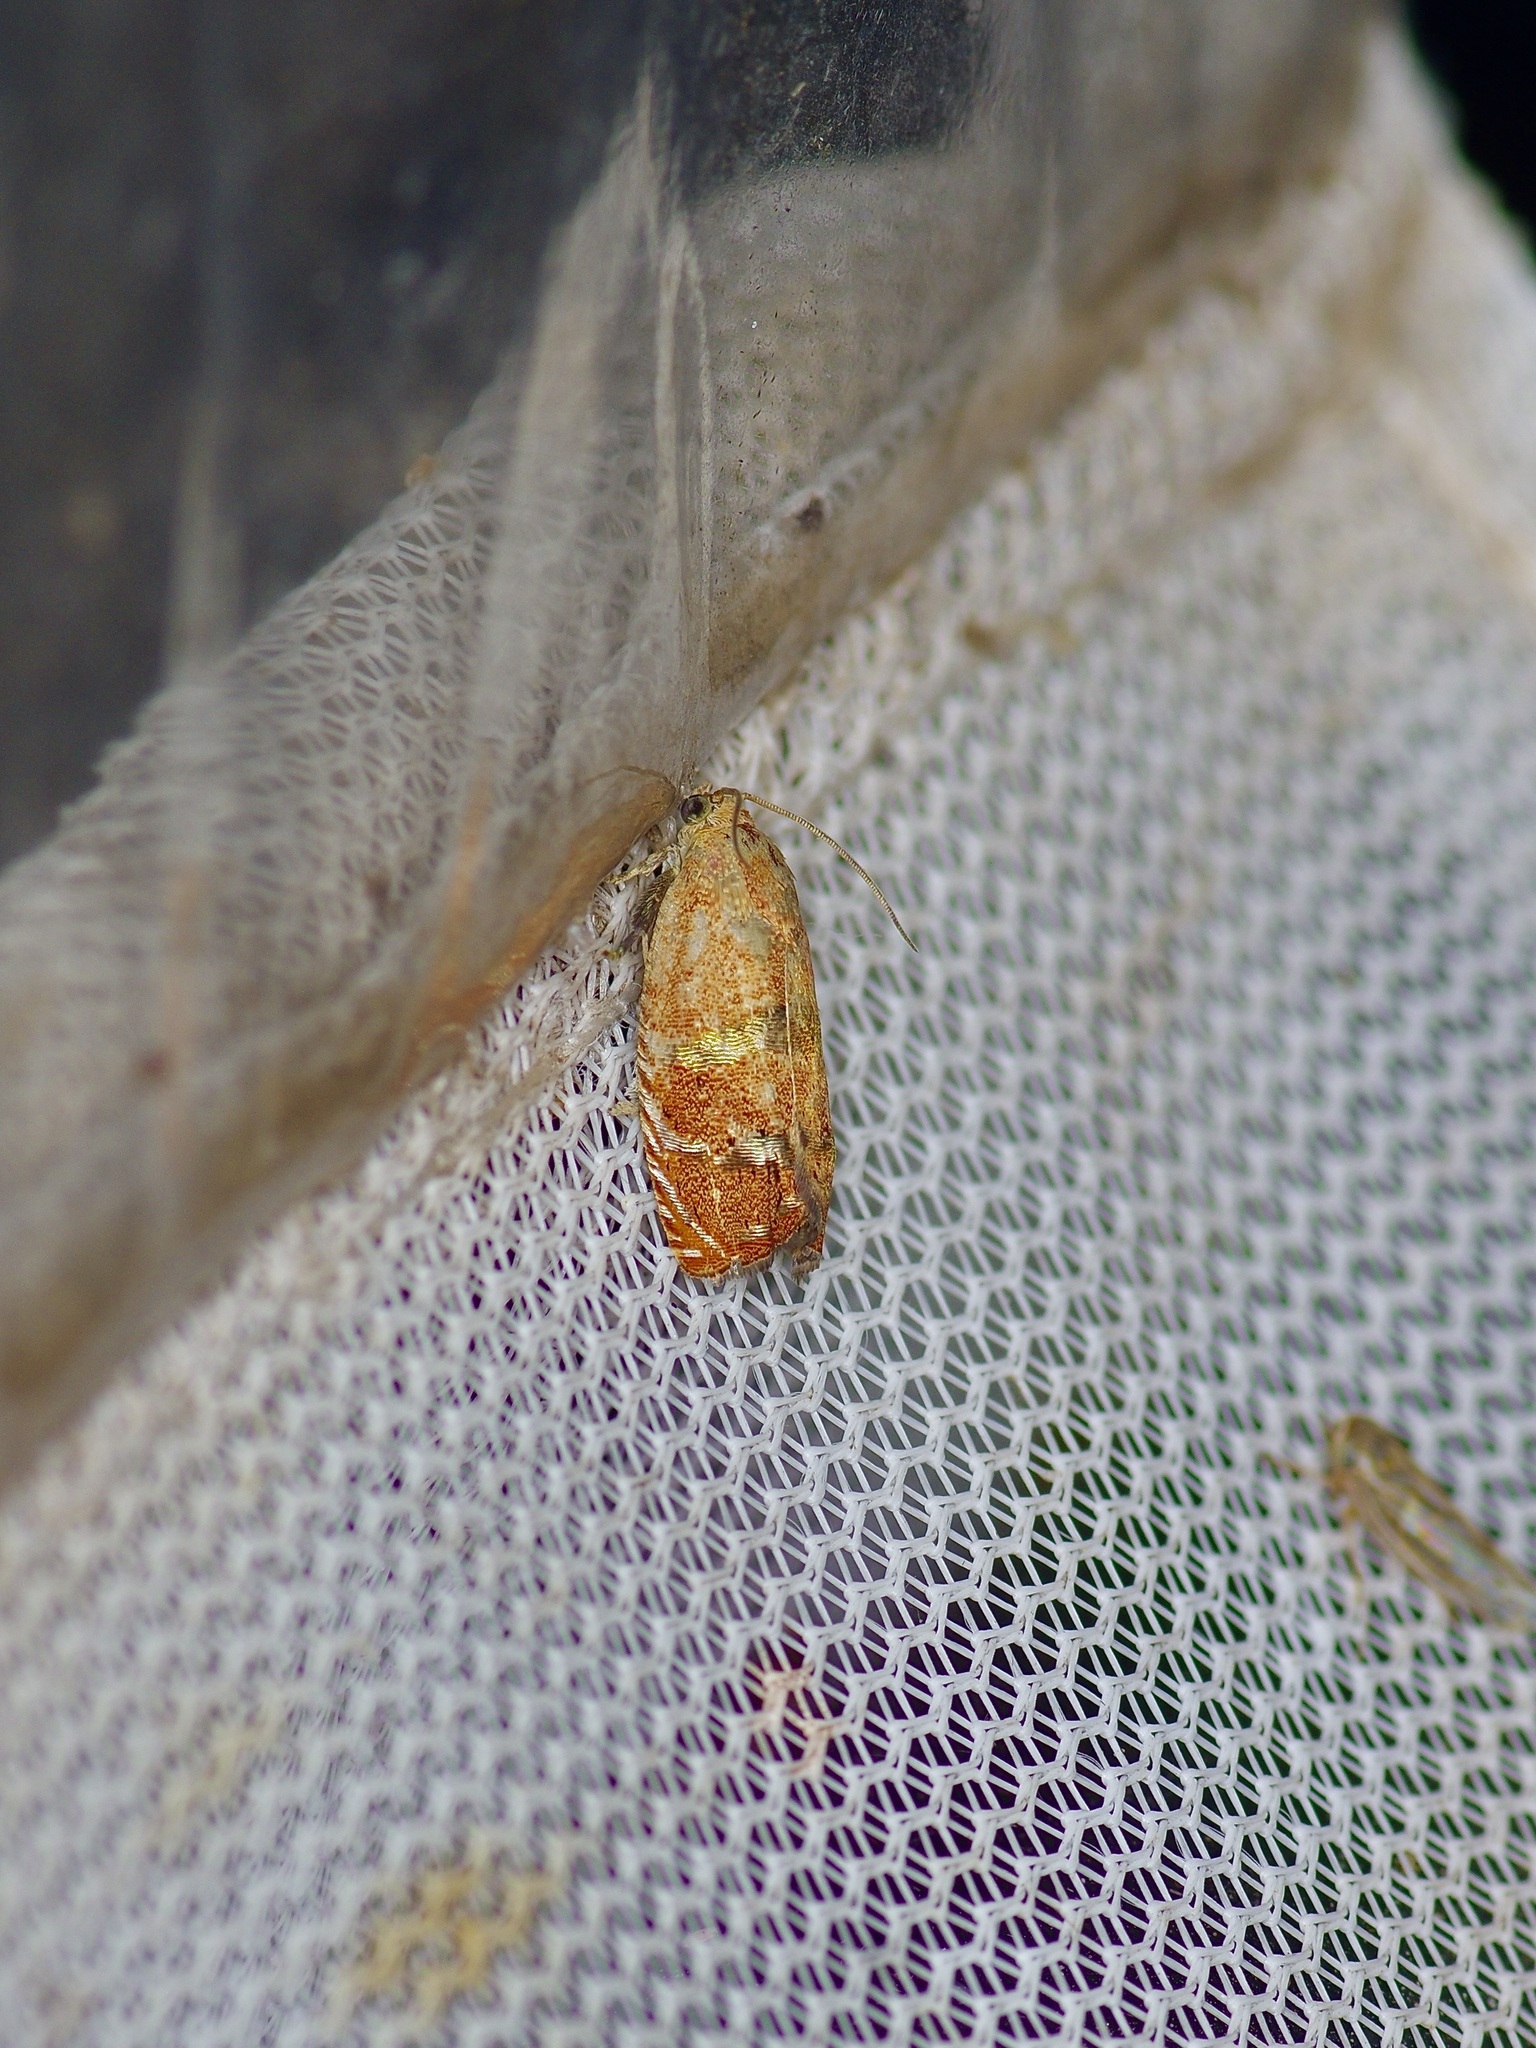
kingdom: Animalia
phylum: Arthropoda
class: Insecta
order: Lepidoptera
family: Tortricidae
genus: Cydia
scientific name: Cydia latiferreana
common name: Filbertworm moth
